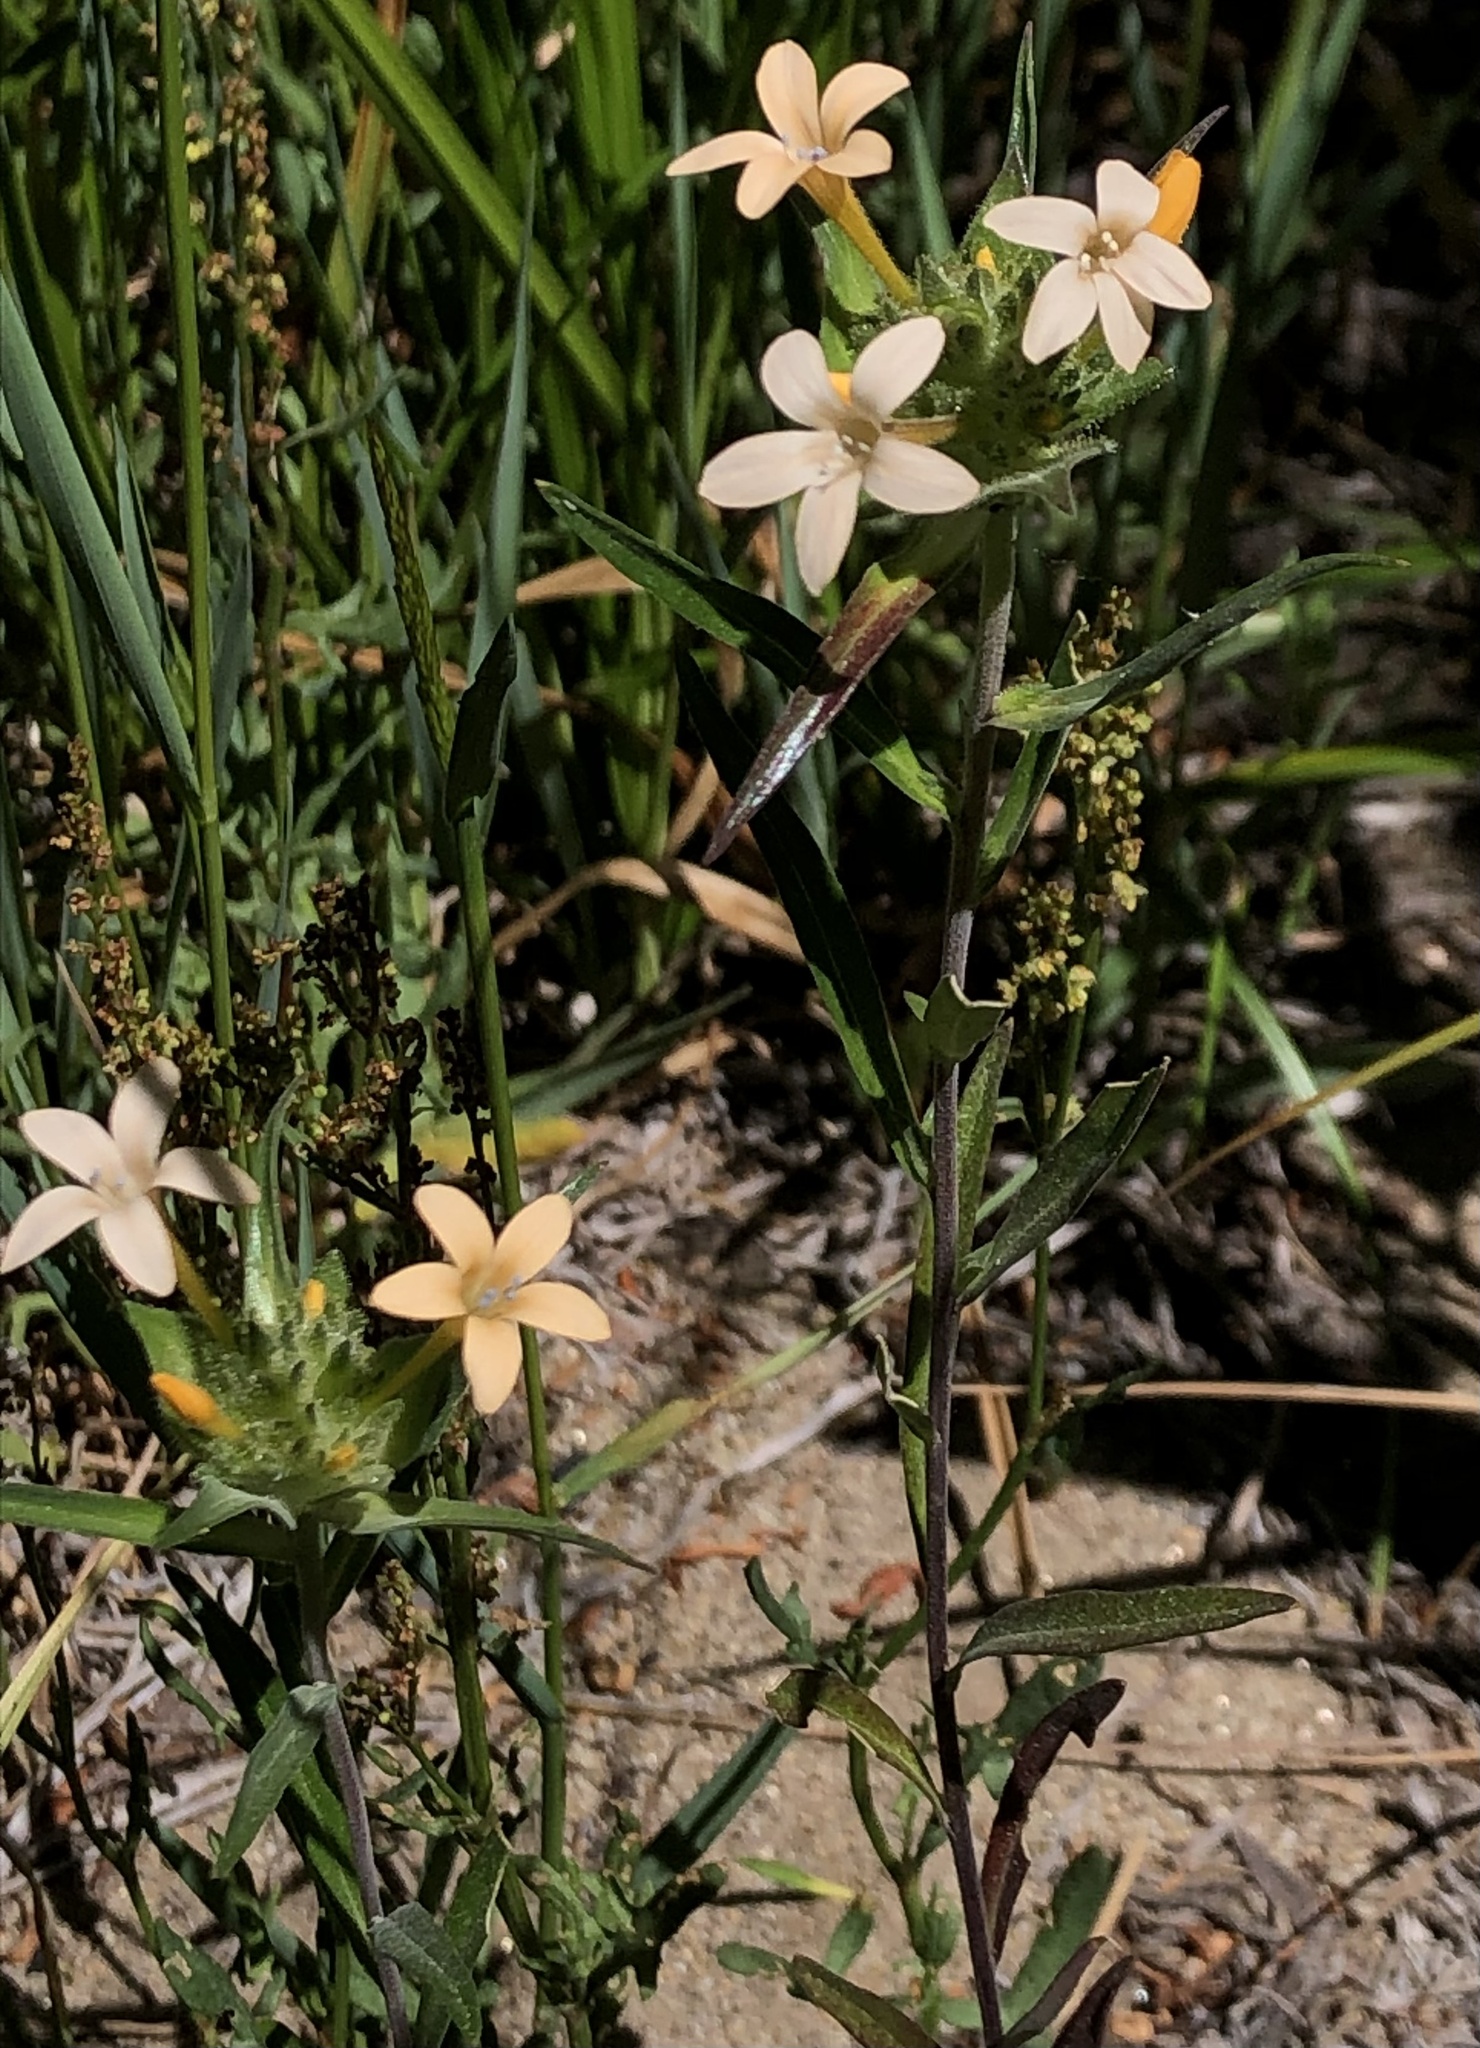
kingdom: Plantae
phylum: Tracheophyta
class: Magnoliopsida
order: Ericales
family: Polemoniaceae
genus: Collomia
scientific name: Collomia grandiflora
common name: California strawflower
